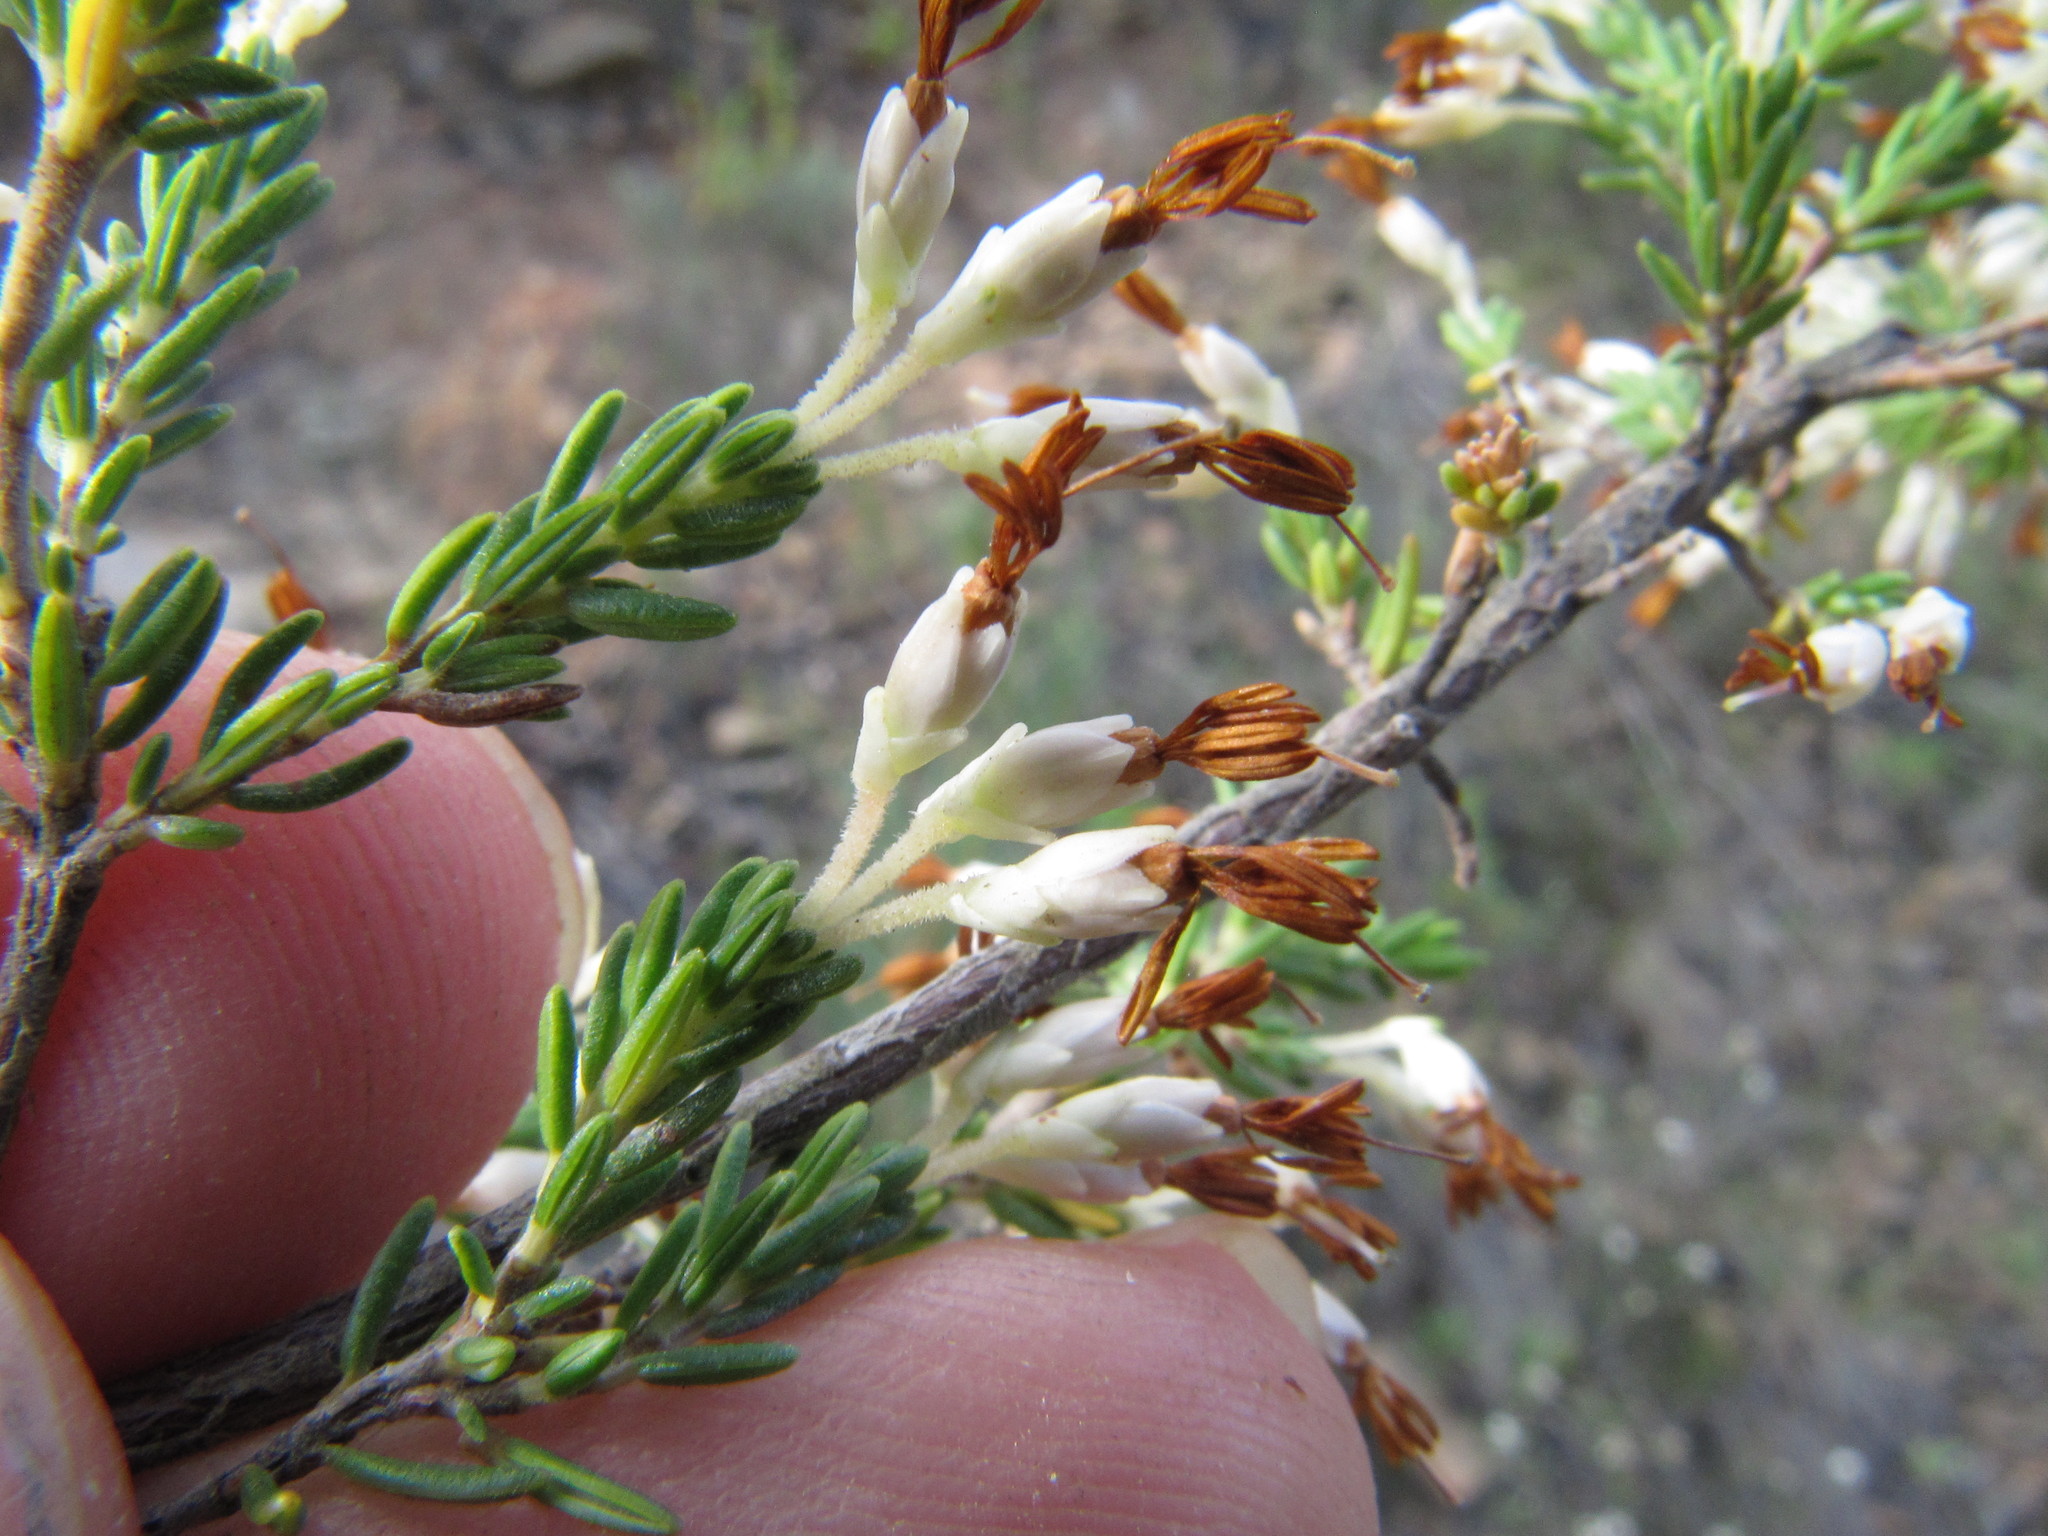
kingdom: Plantae
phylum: Tracheophyta
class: Magnoliopsida
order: Ericales
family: Ericaceae
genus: Erica
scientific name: Erica imbricata
